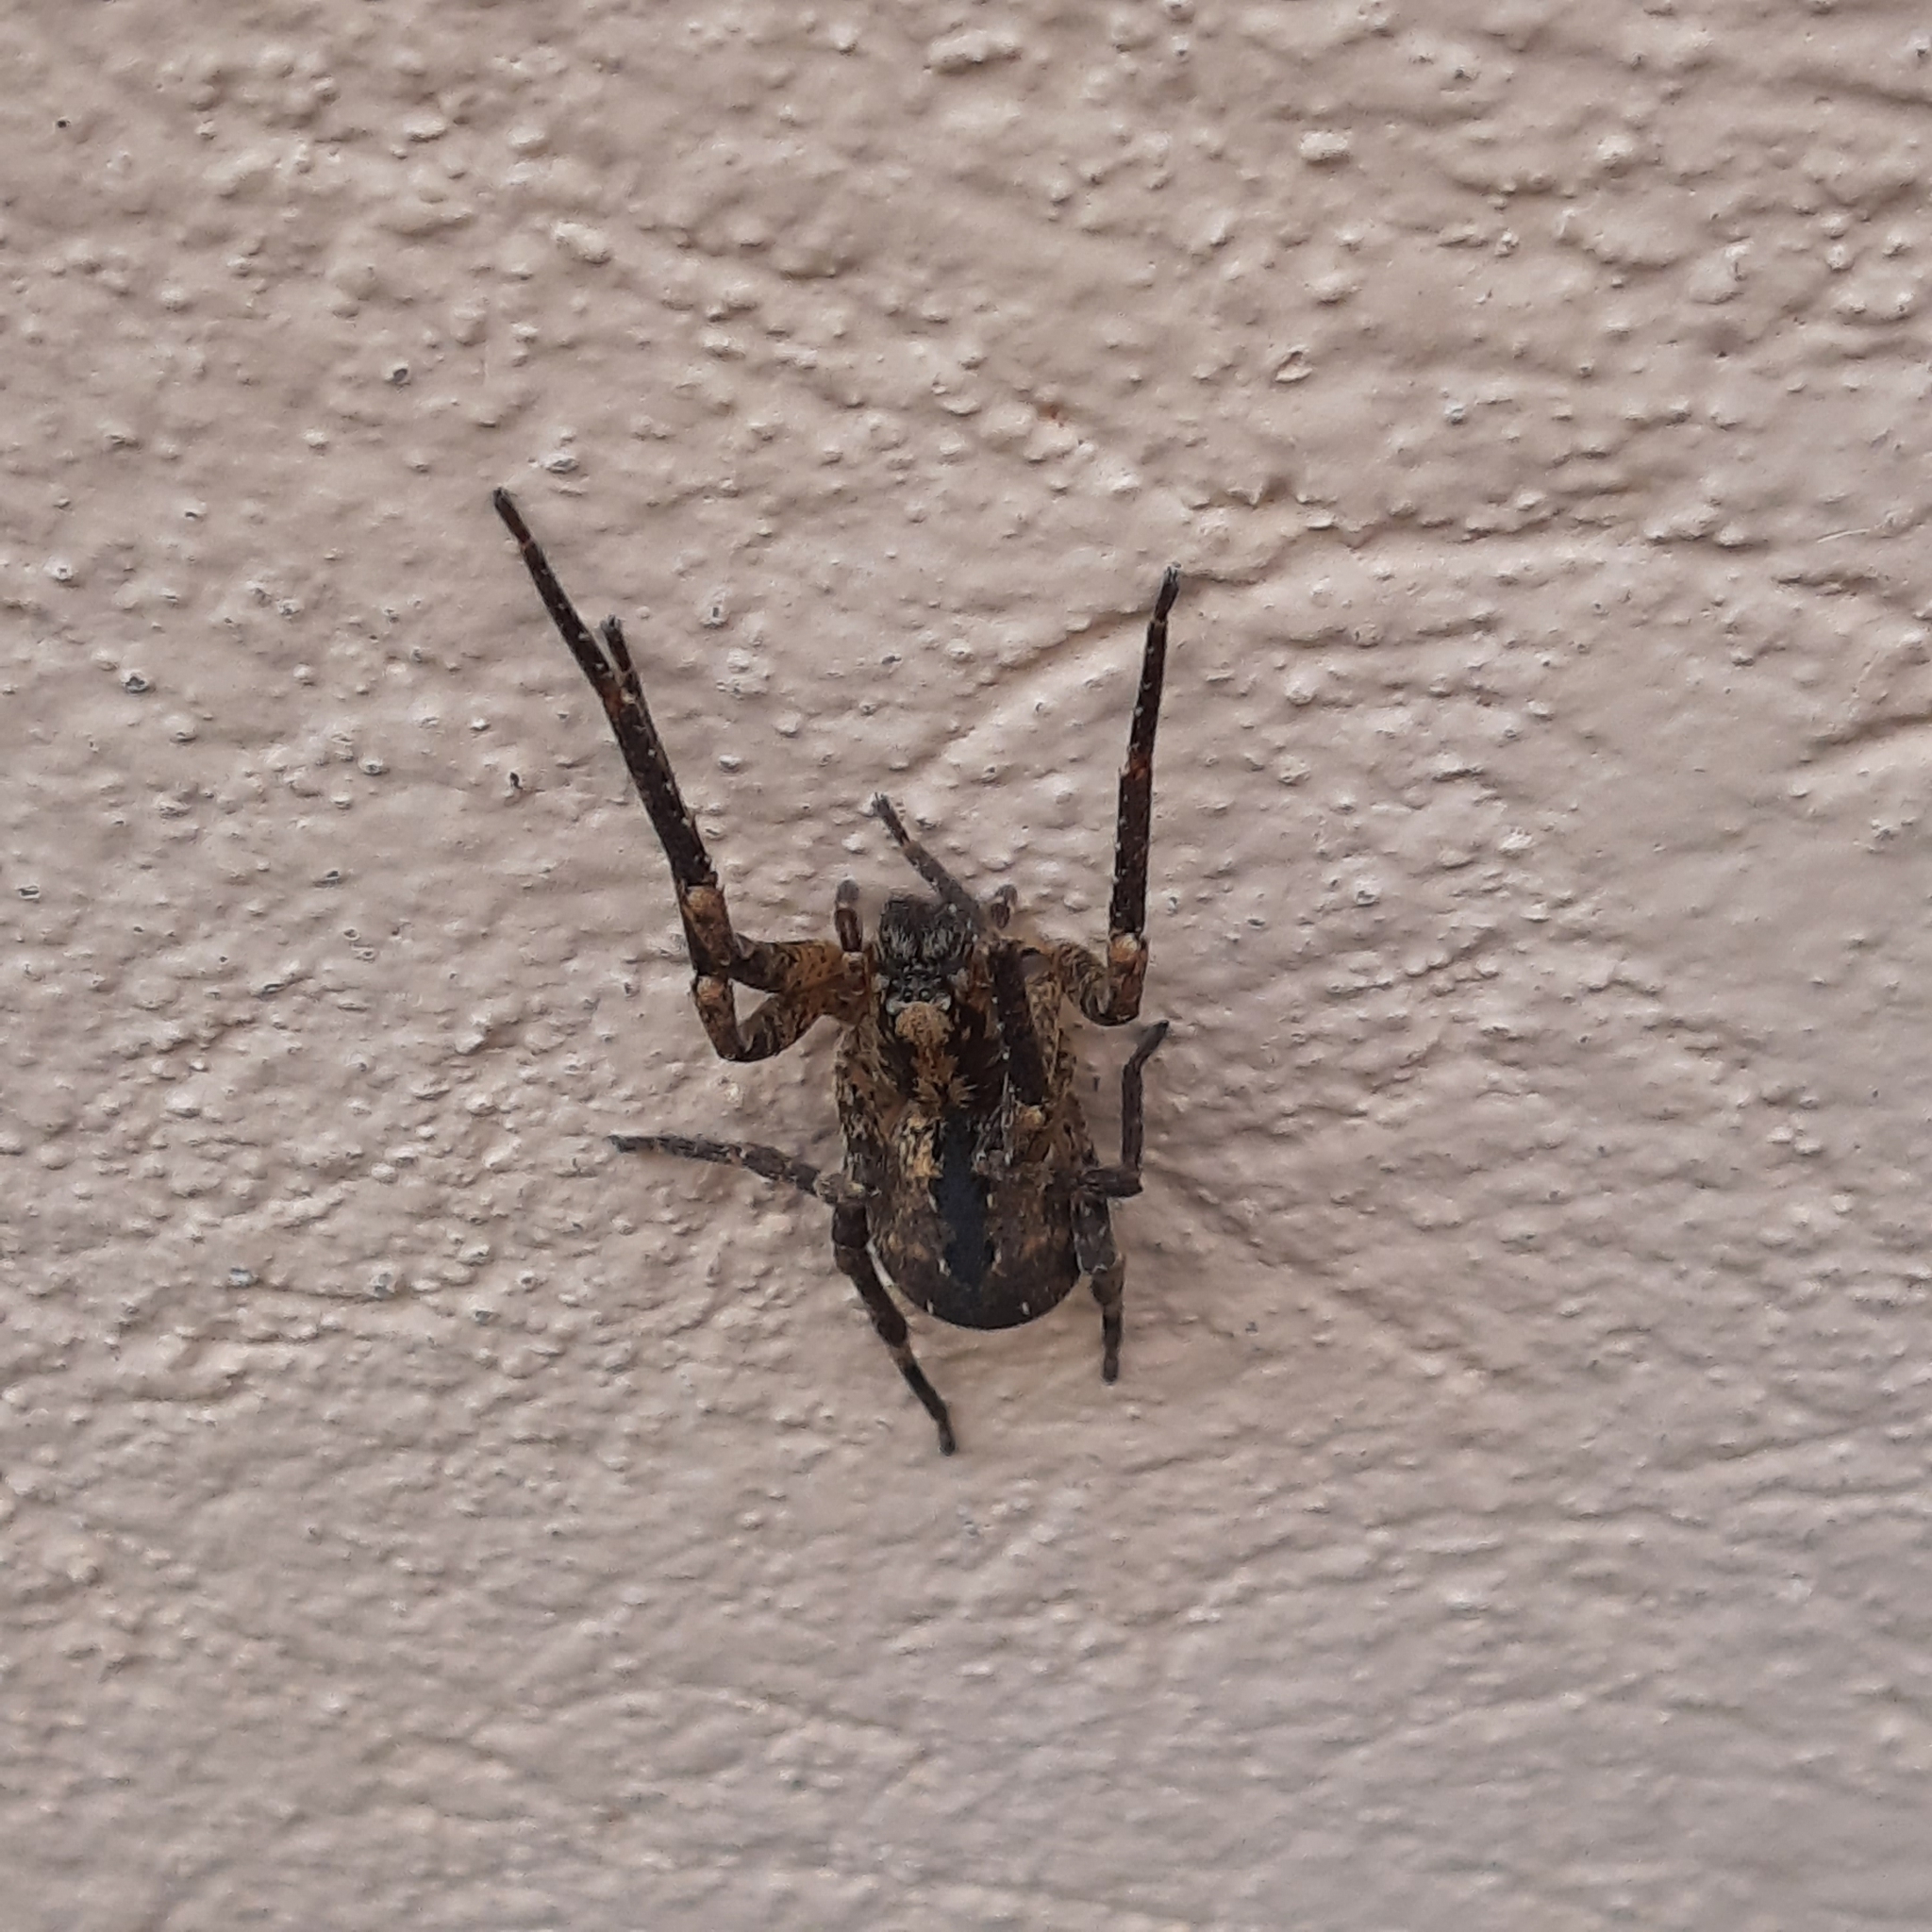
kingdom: Animalia
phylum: Arthropoda
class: Arachnida
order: Araneae
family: Zoropsidae
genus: Zoropsis
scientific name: Zoropsis spinimana
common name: Zoropsid spider
